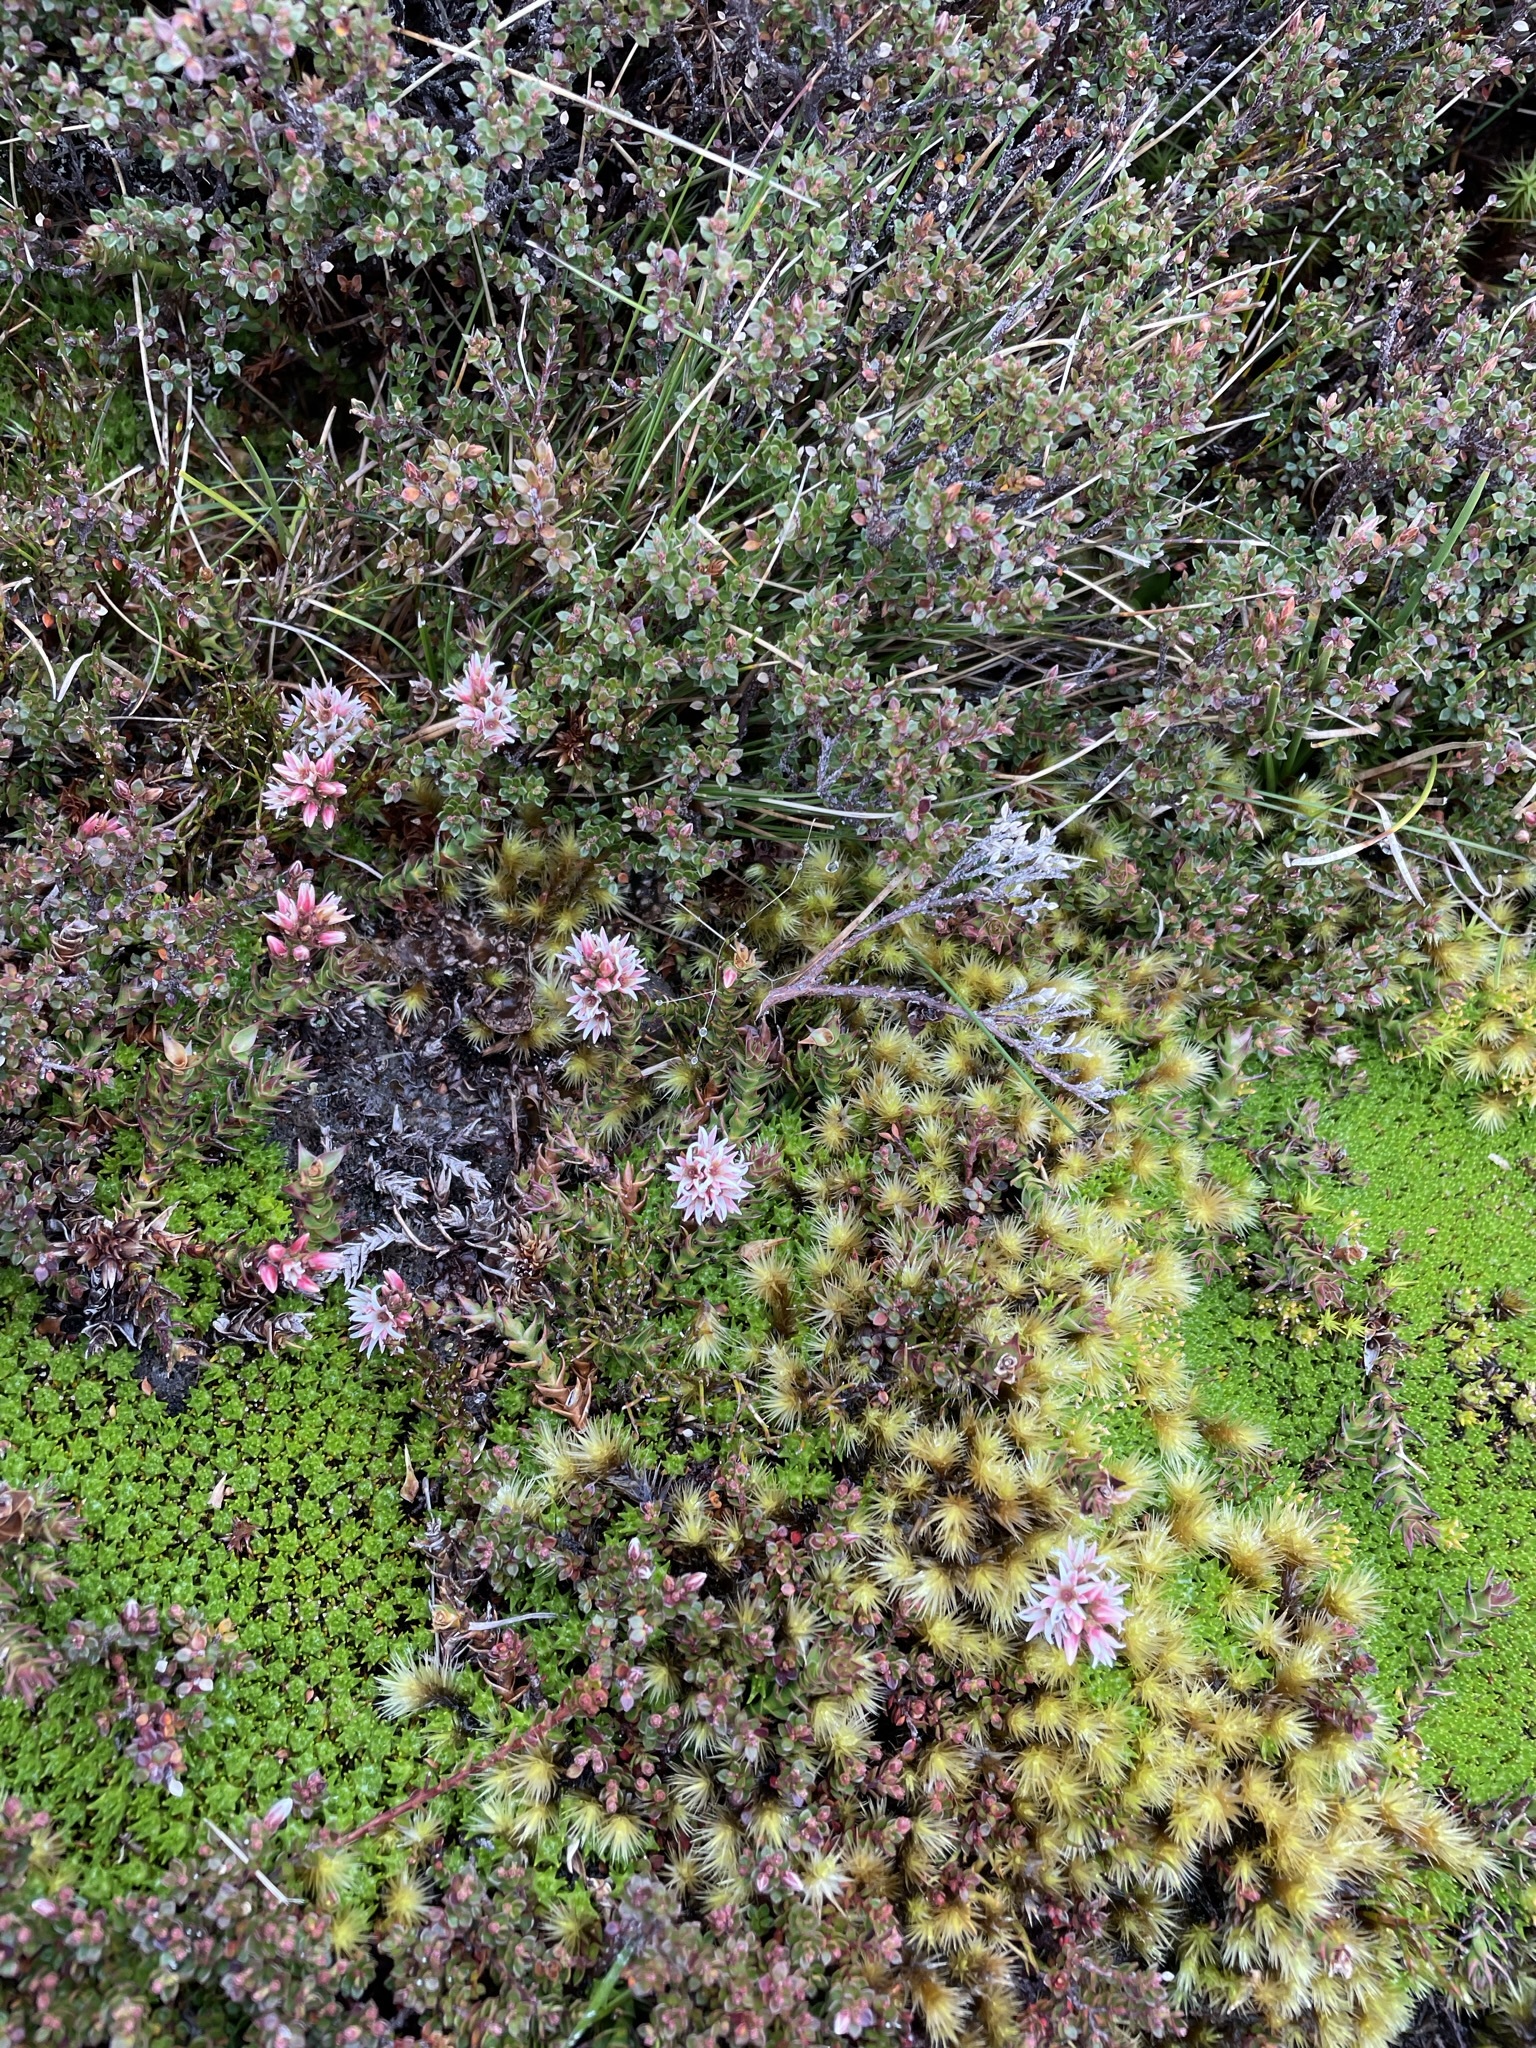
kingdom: Plantae
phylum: Tracheophyta
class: Magnoliopsida
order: Ericales
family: Ericaceae
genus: Sprengelia
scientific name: Sprengelia montana
